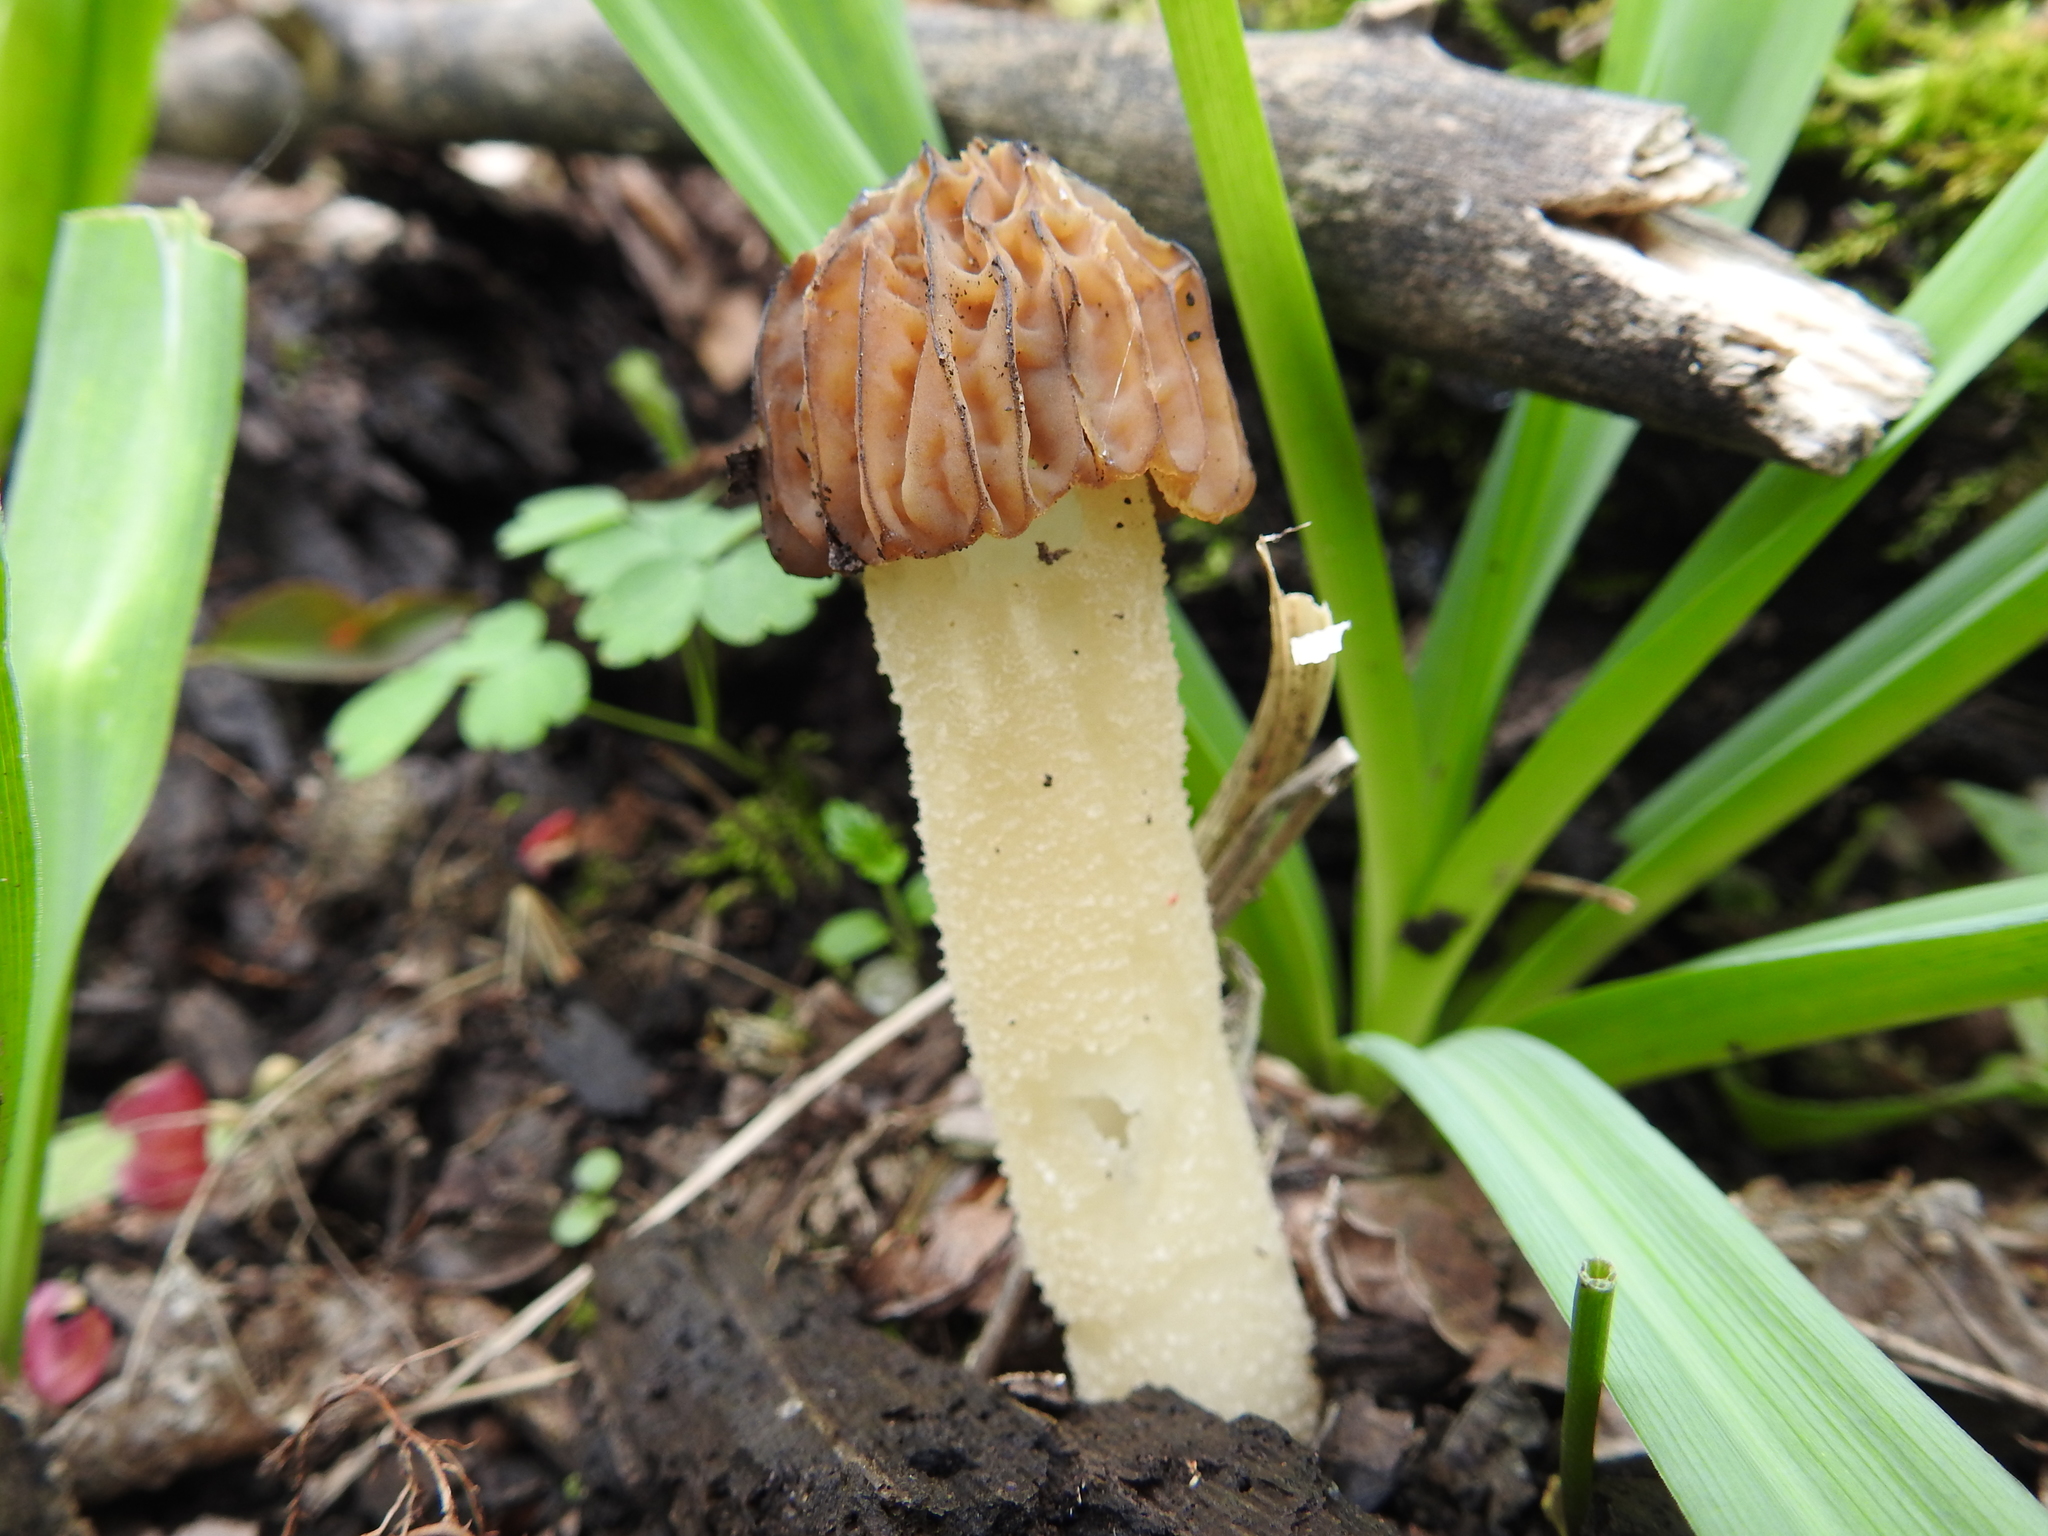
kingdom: Fungi
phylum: Ascomycota
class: Pezizomycetes
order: Pezizales
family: Morchellaceae
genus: Morchella
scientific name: Morchella punctipes
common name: Half-free morel
